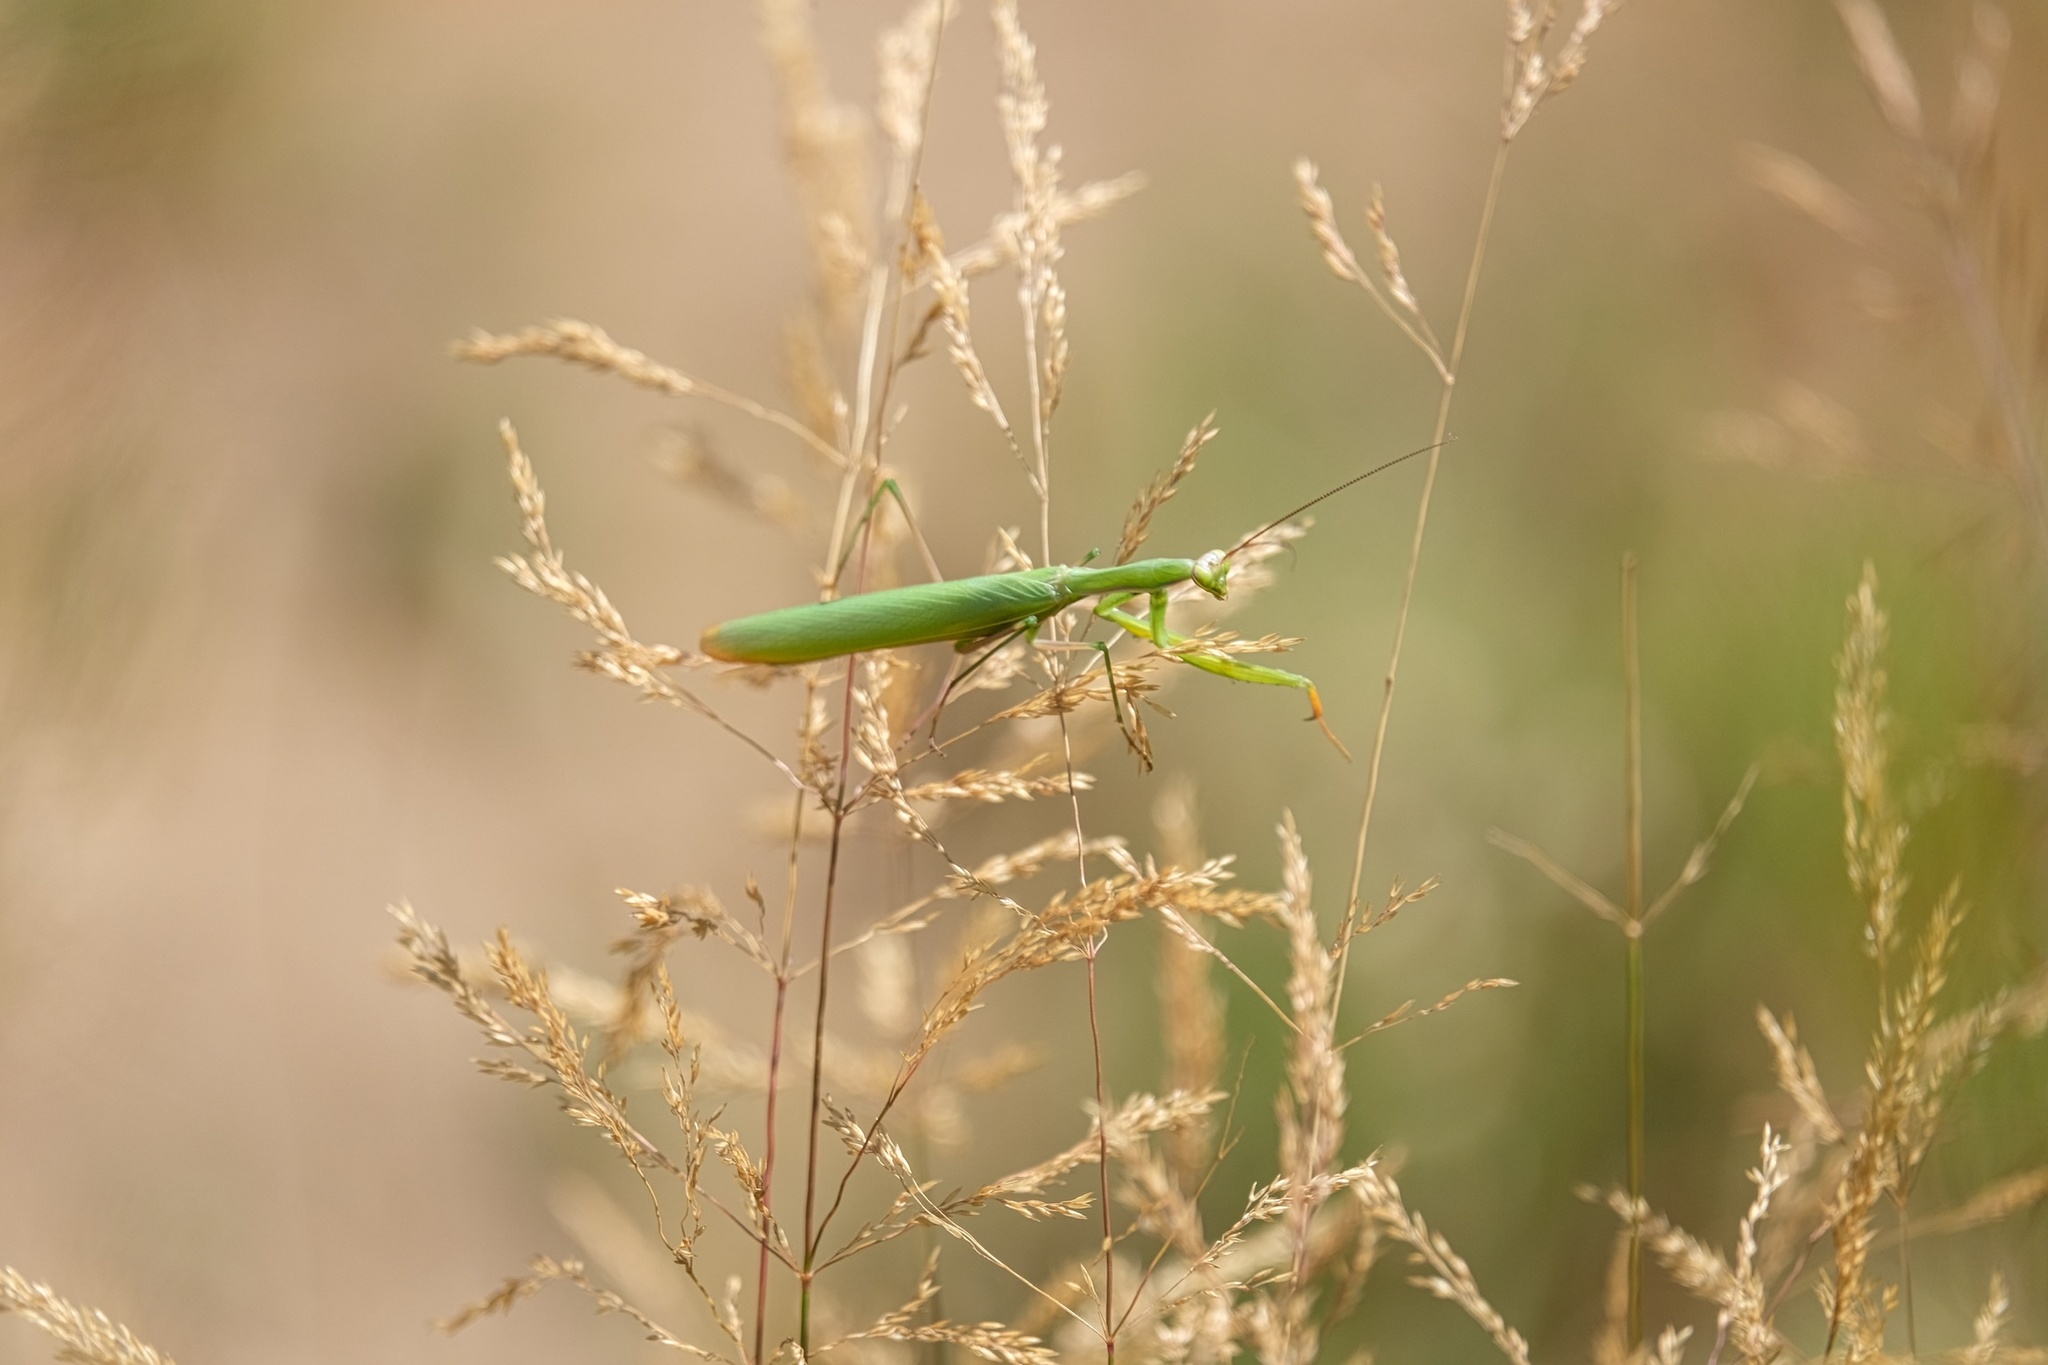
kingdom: Animalia
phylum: Arthropoda
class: Insecta
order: Mantodea
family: Mantidae
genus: Mantis
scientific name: Mantis religiosa
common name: Praying mantis
